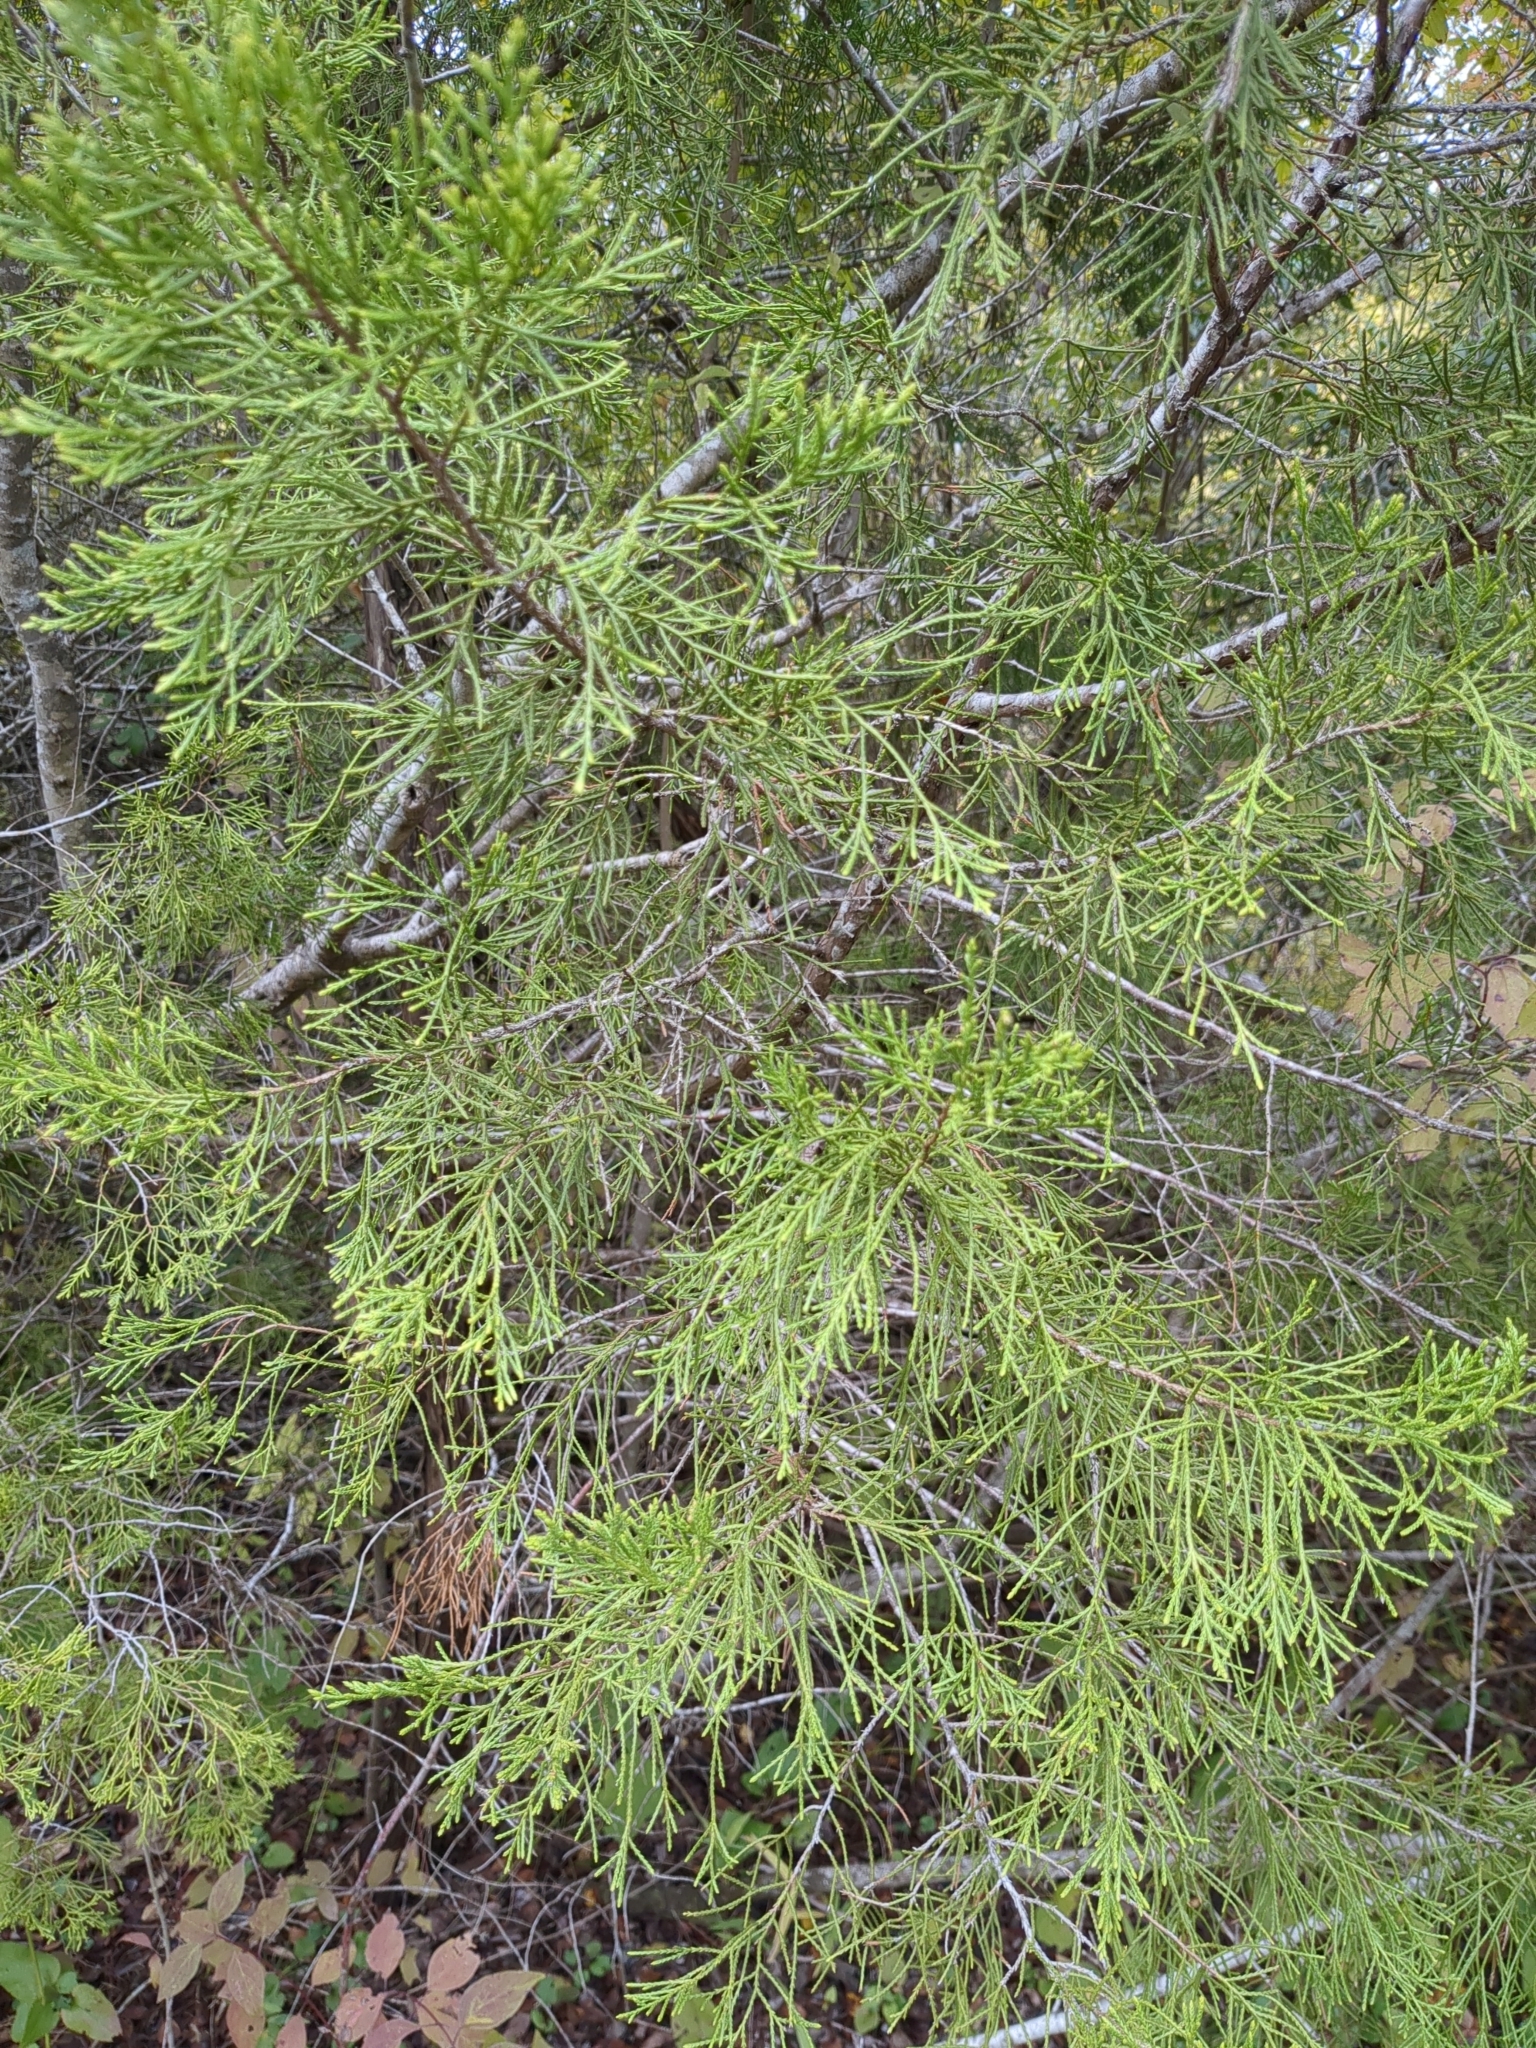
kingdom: Plantae
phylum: Tracheophyta
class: Pinopsida
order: Pinales
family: Cupressaceae
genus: Juniperus
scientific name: Juniperus virginiana
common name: Red juniper
